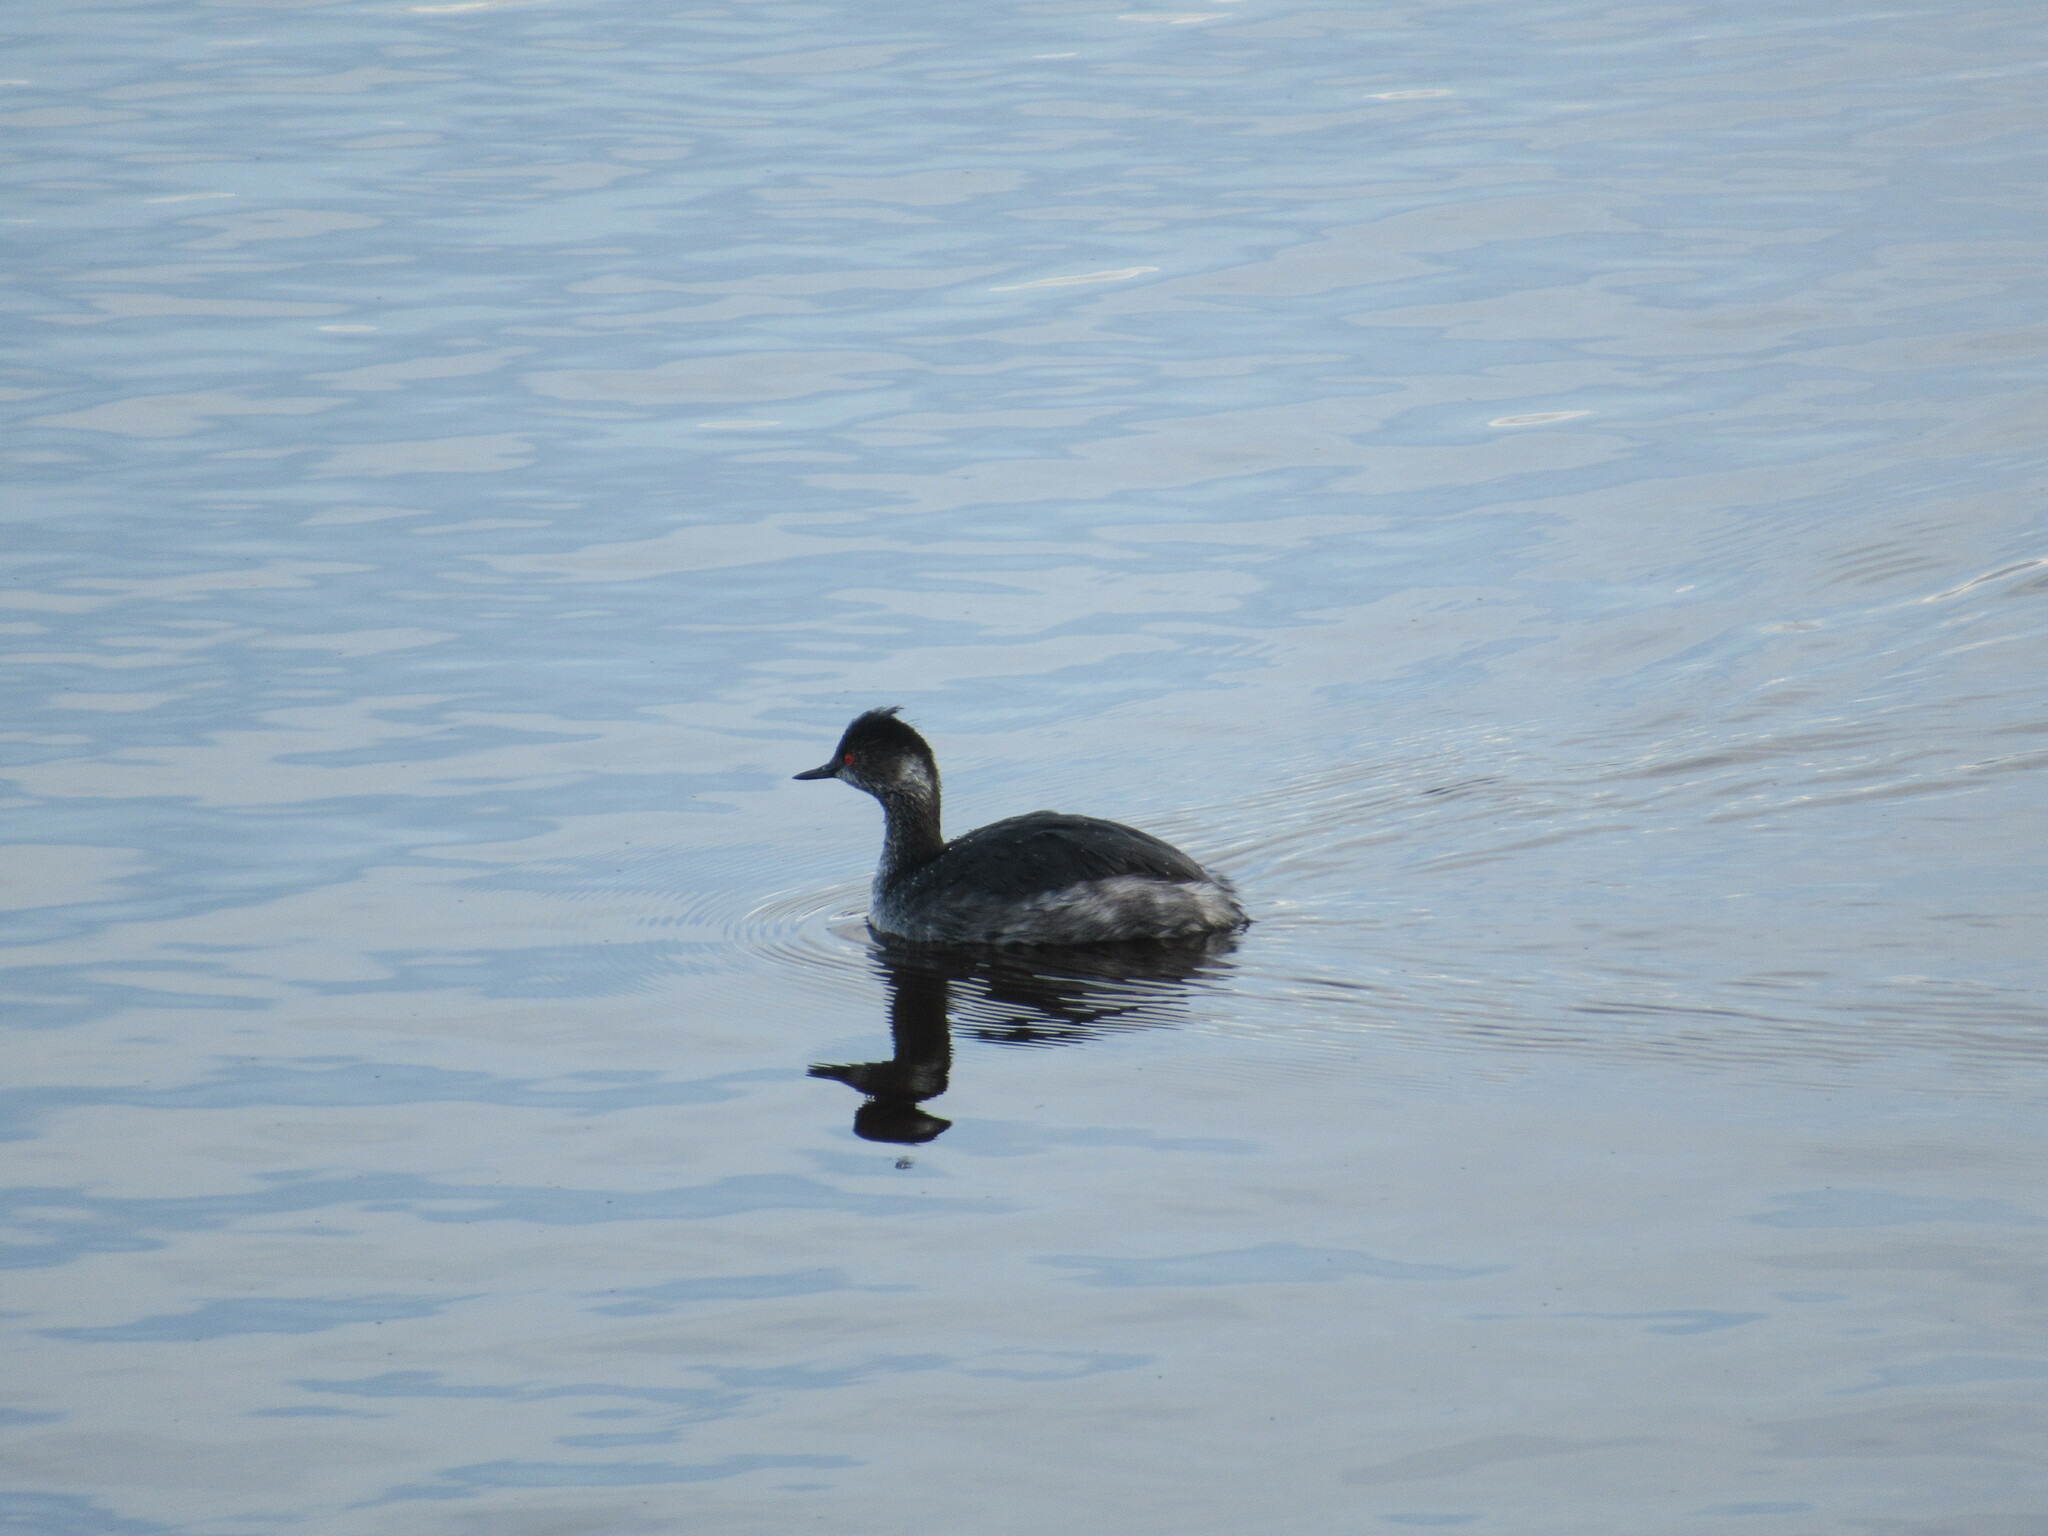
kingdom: Animalia
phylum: Chordata
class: Aves
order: Podicipediformes
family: Podicipedidae
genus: Podiceps
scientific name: Podiceps nigricollis
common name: Black-necked grebe
